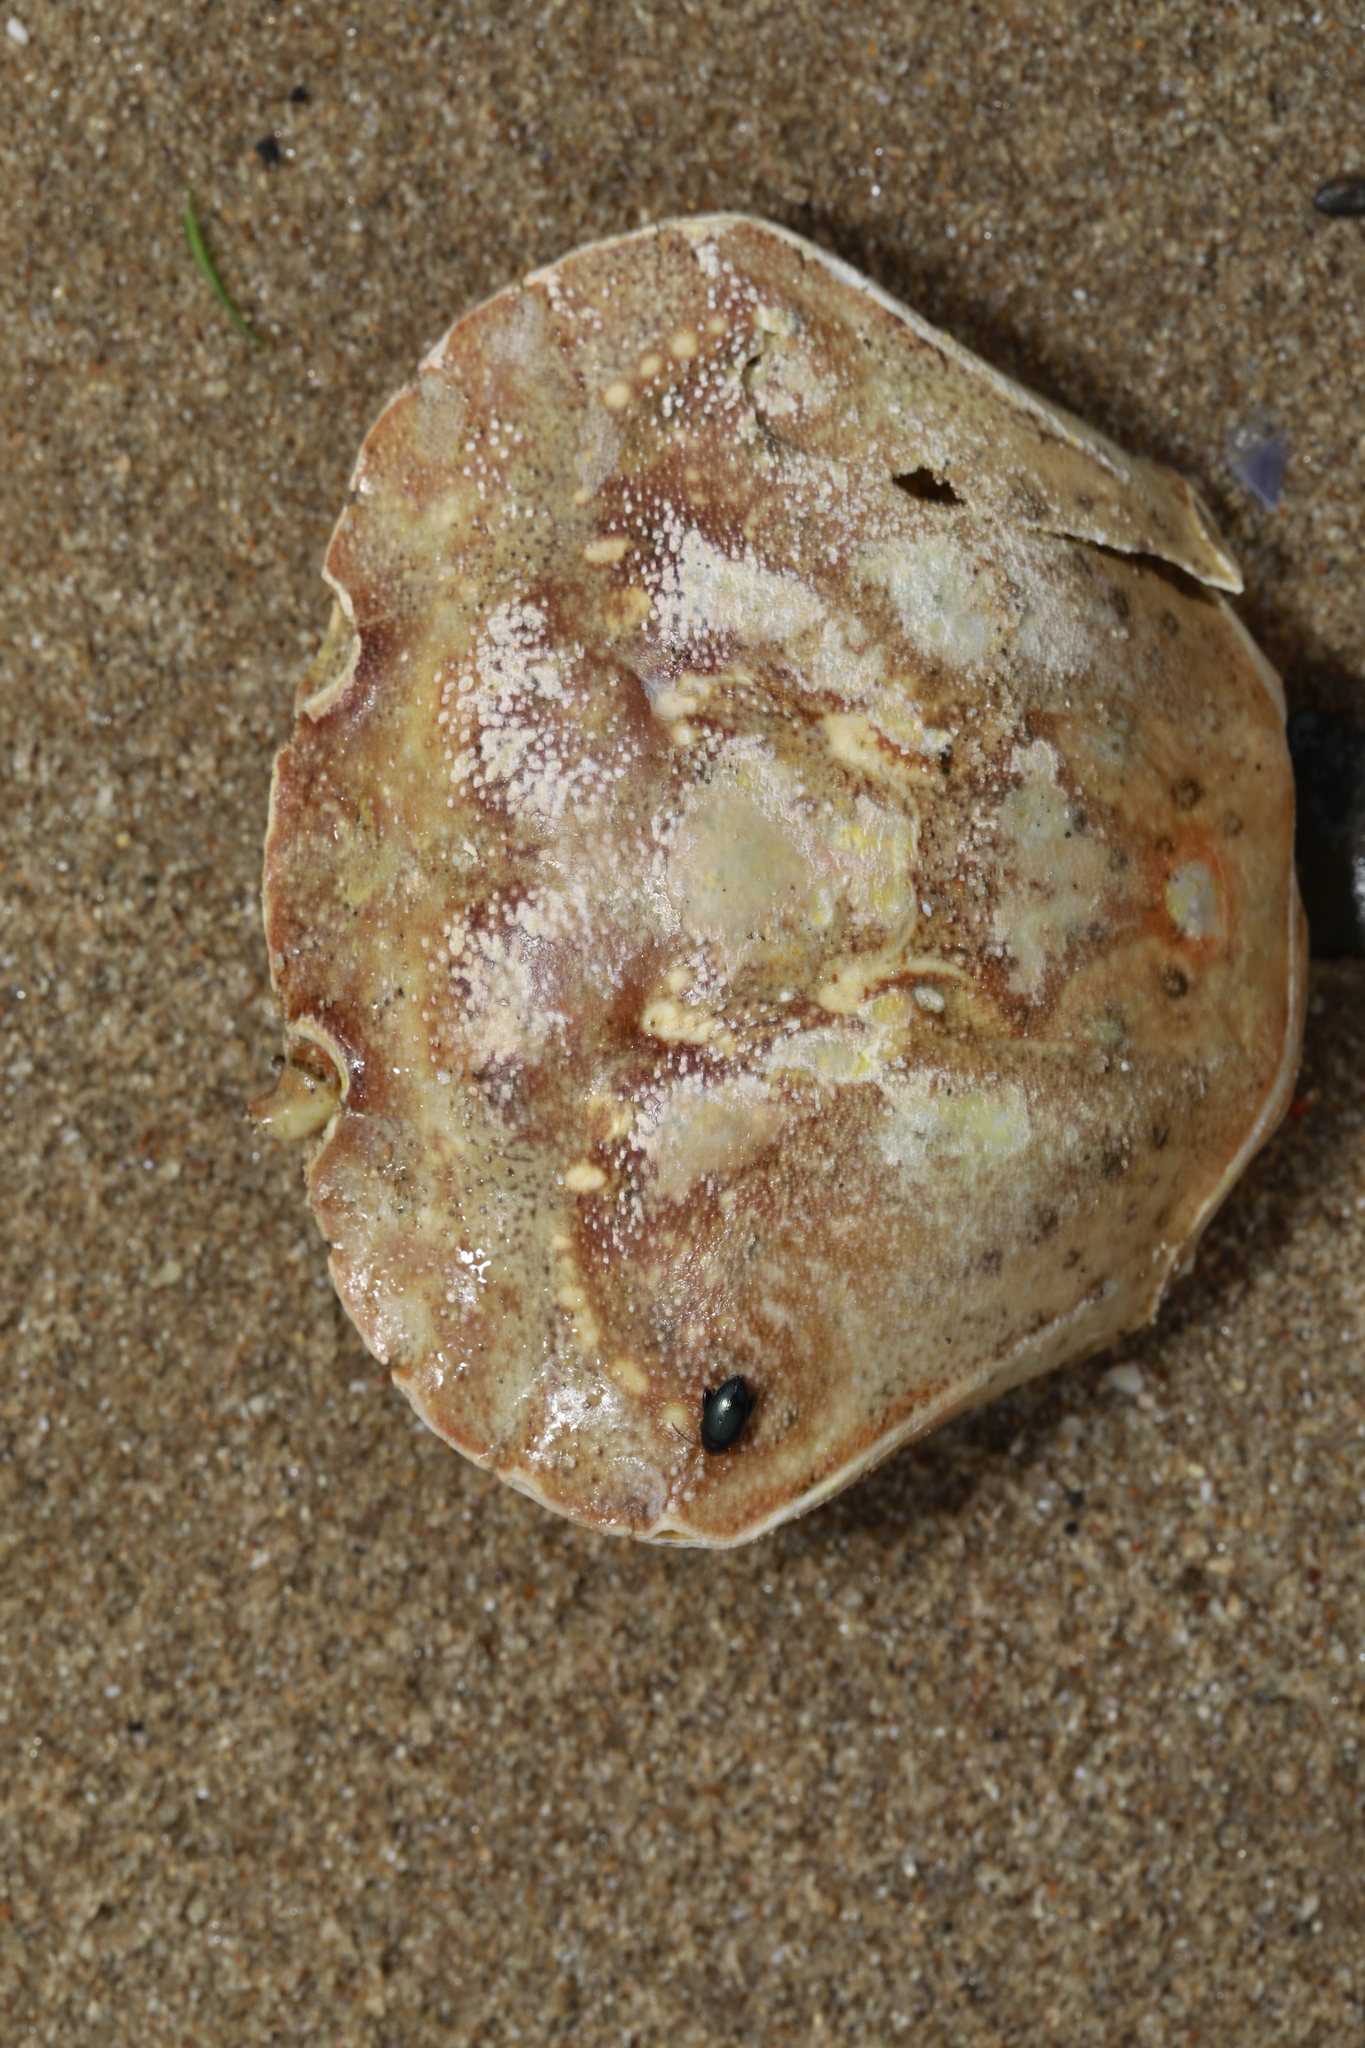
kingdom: Animalia
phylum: Arthropoda
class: Malacostraca
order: Decapoda
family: Carcinidae
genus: Carcinus
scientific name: Carcinus maenas
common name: European green crab
